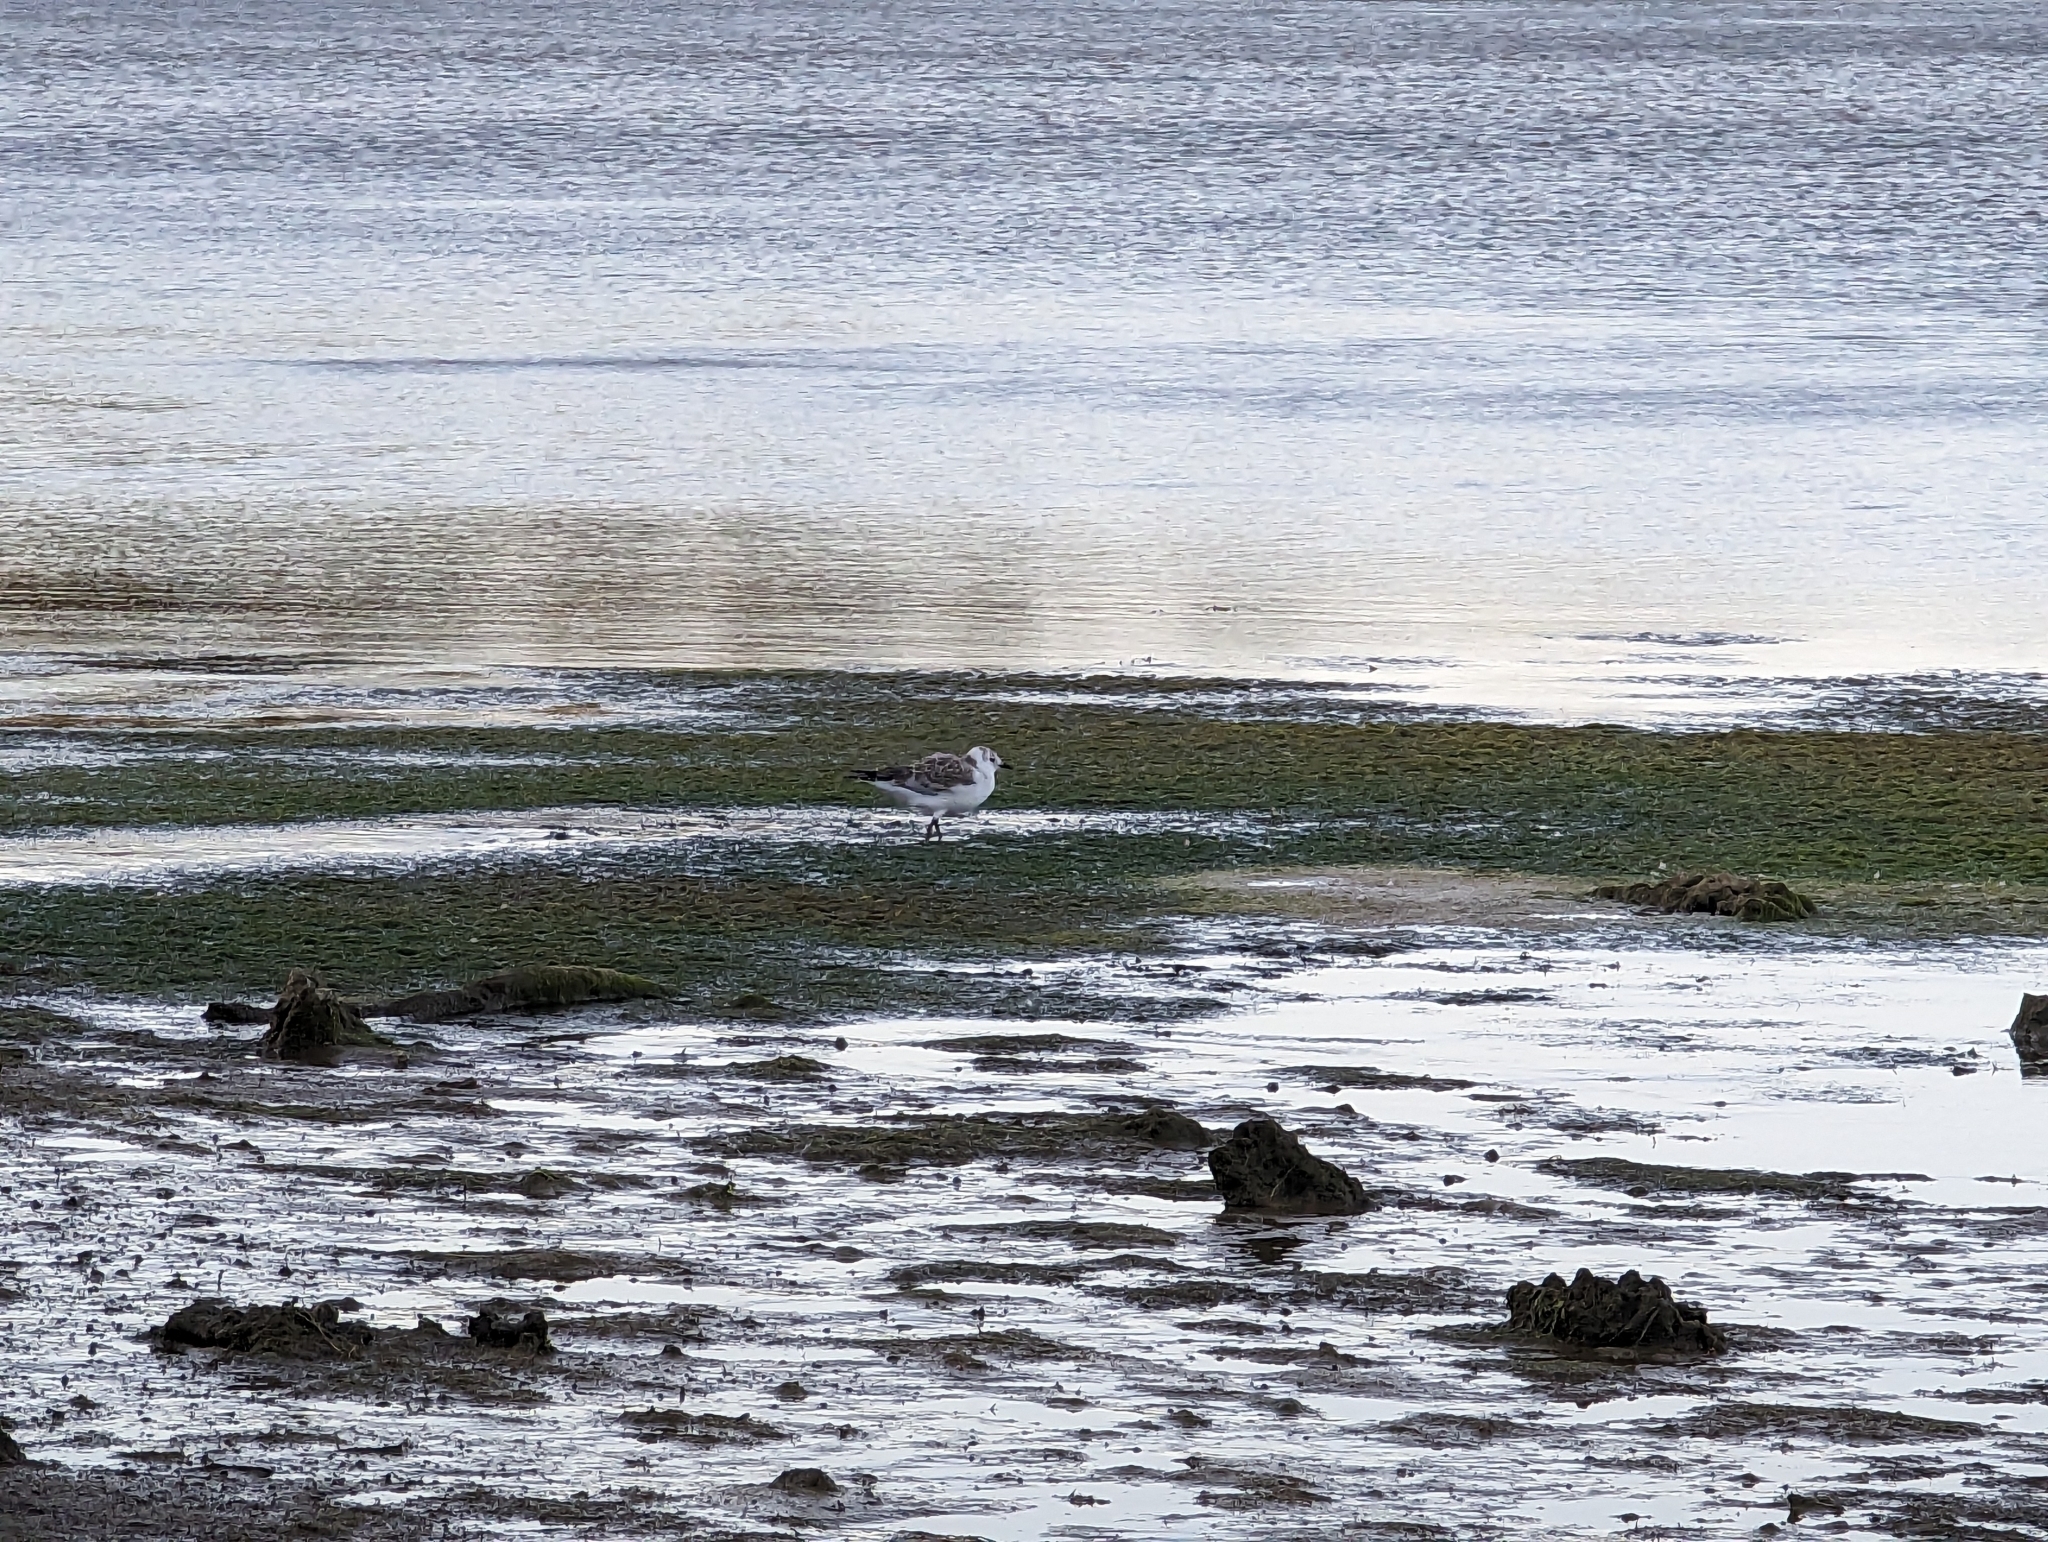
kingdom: Animalia
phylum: Chordata
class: Aves
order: Charadriiformes
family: Laridae
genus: Chroicocephalus
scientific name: Chroicocephalus novaehollandiae
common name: Silver gull
